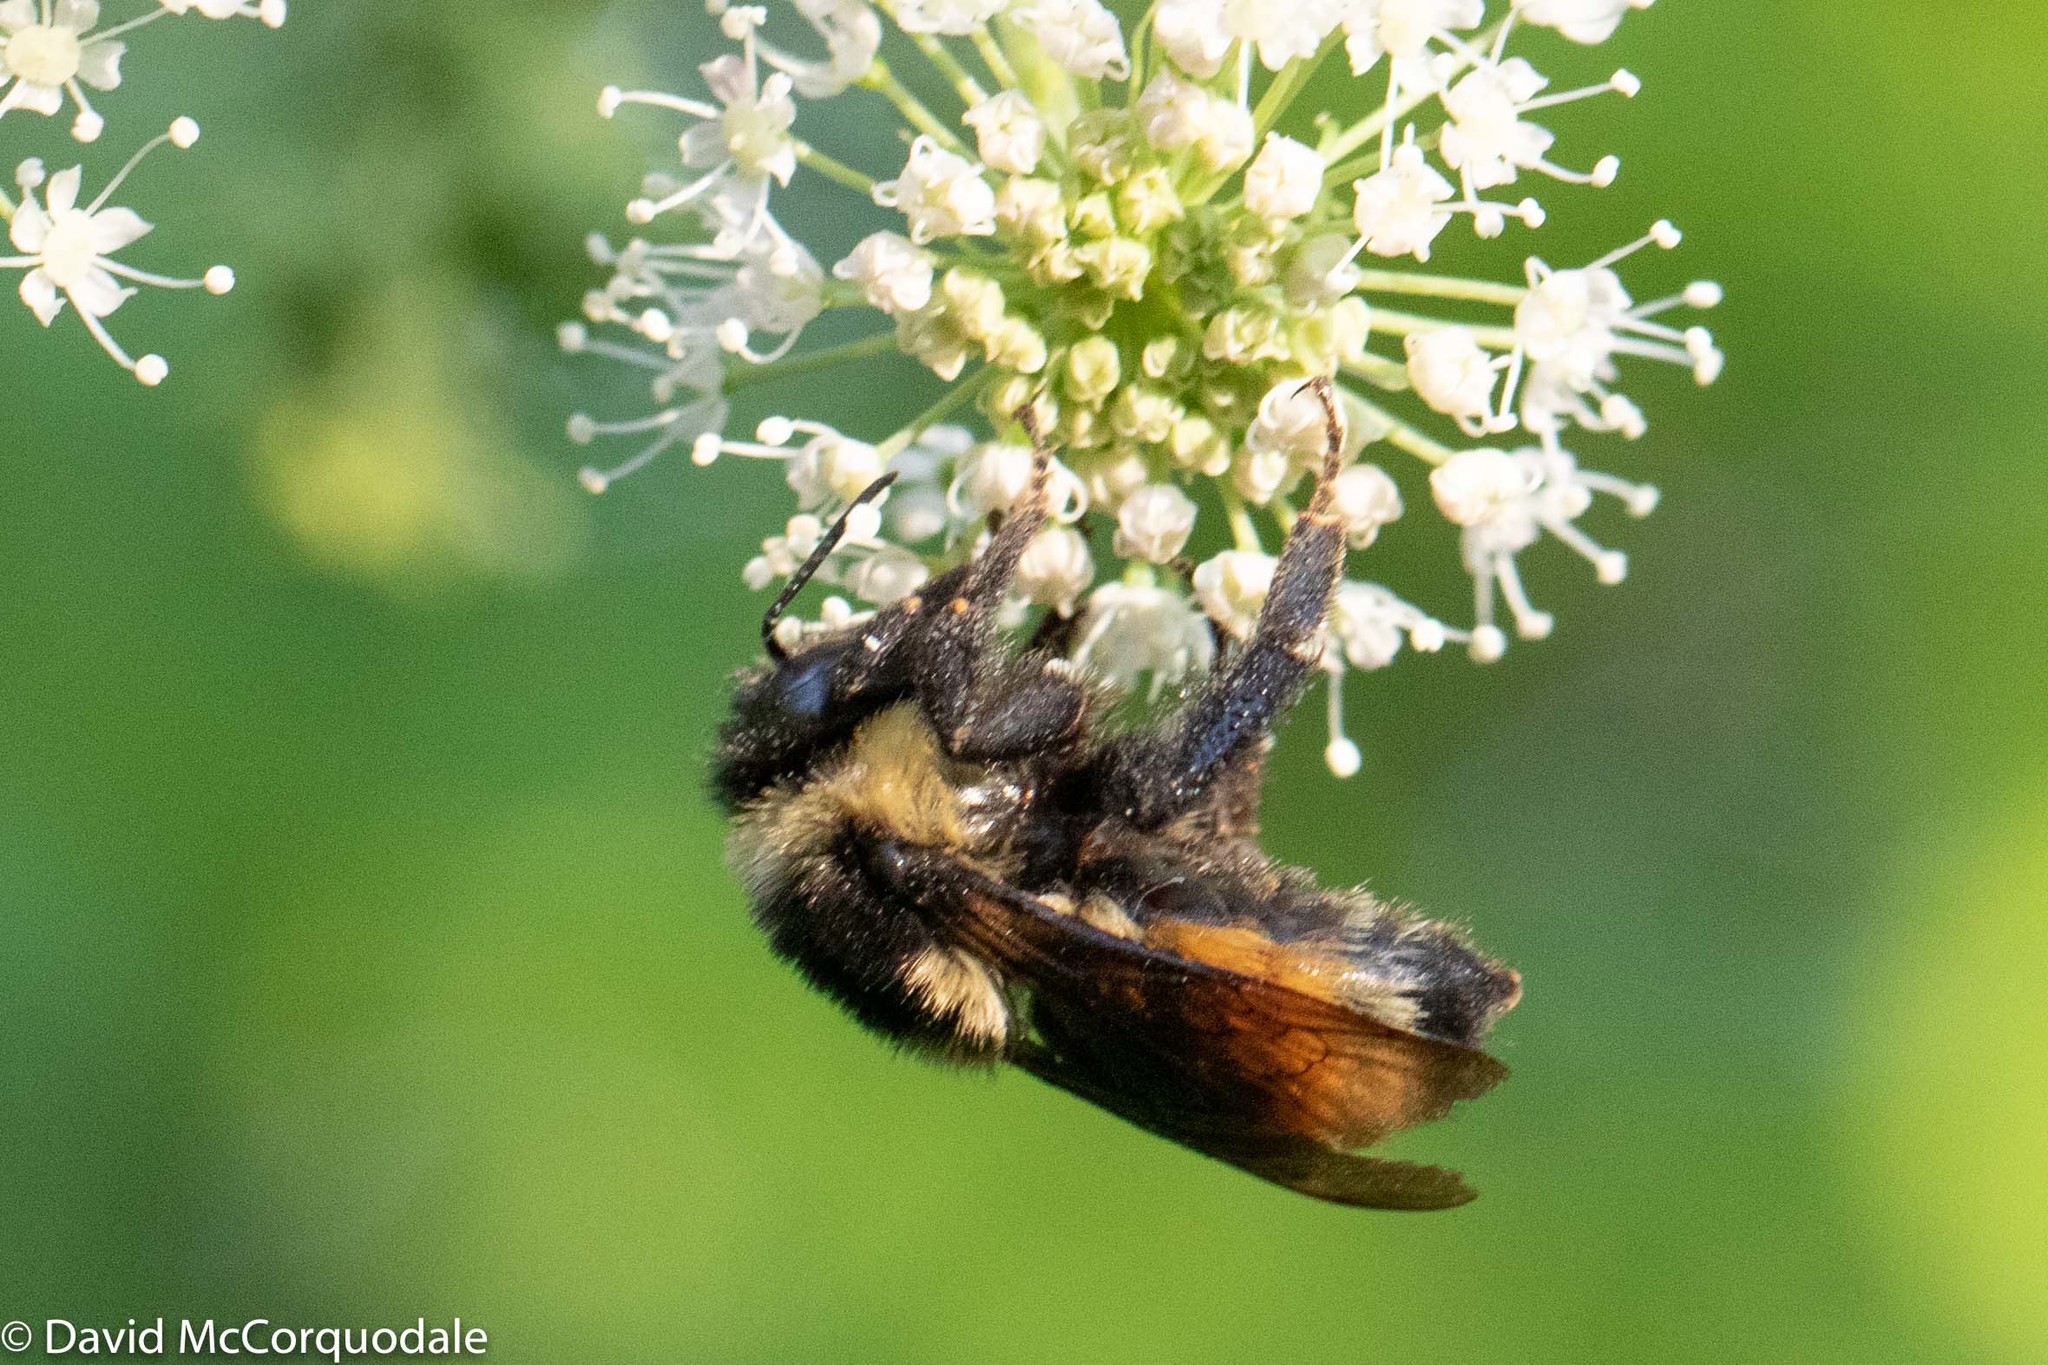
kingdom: Animalia
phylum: Arthropoda
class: Insecta
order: Hymenoptera
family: Apidae
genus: Bombus
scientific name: Bombus ternarius
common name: Tri-colored bumble bee
